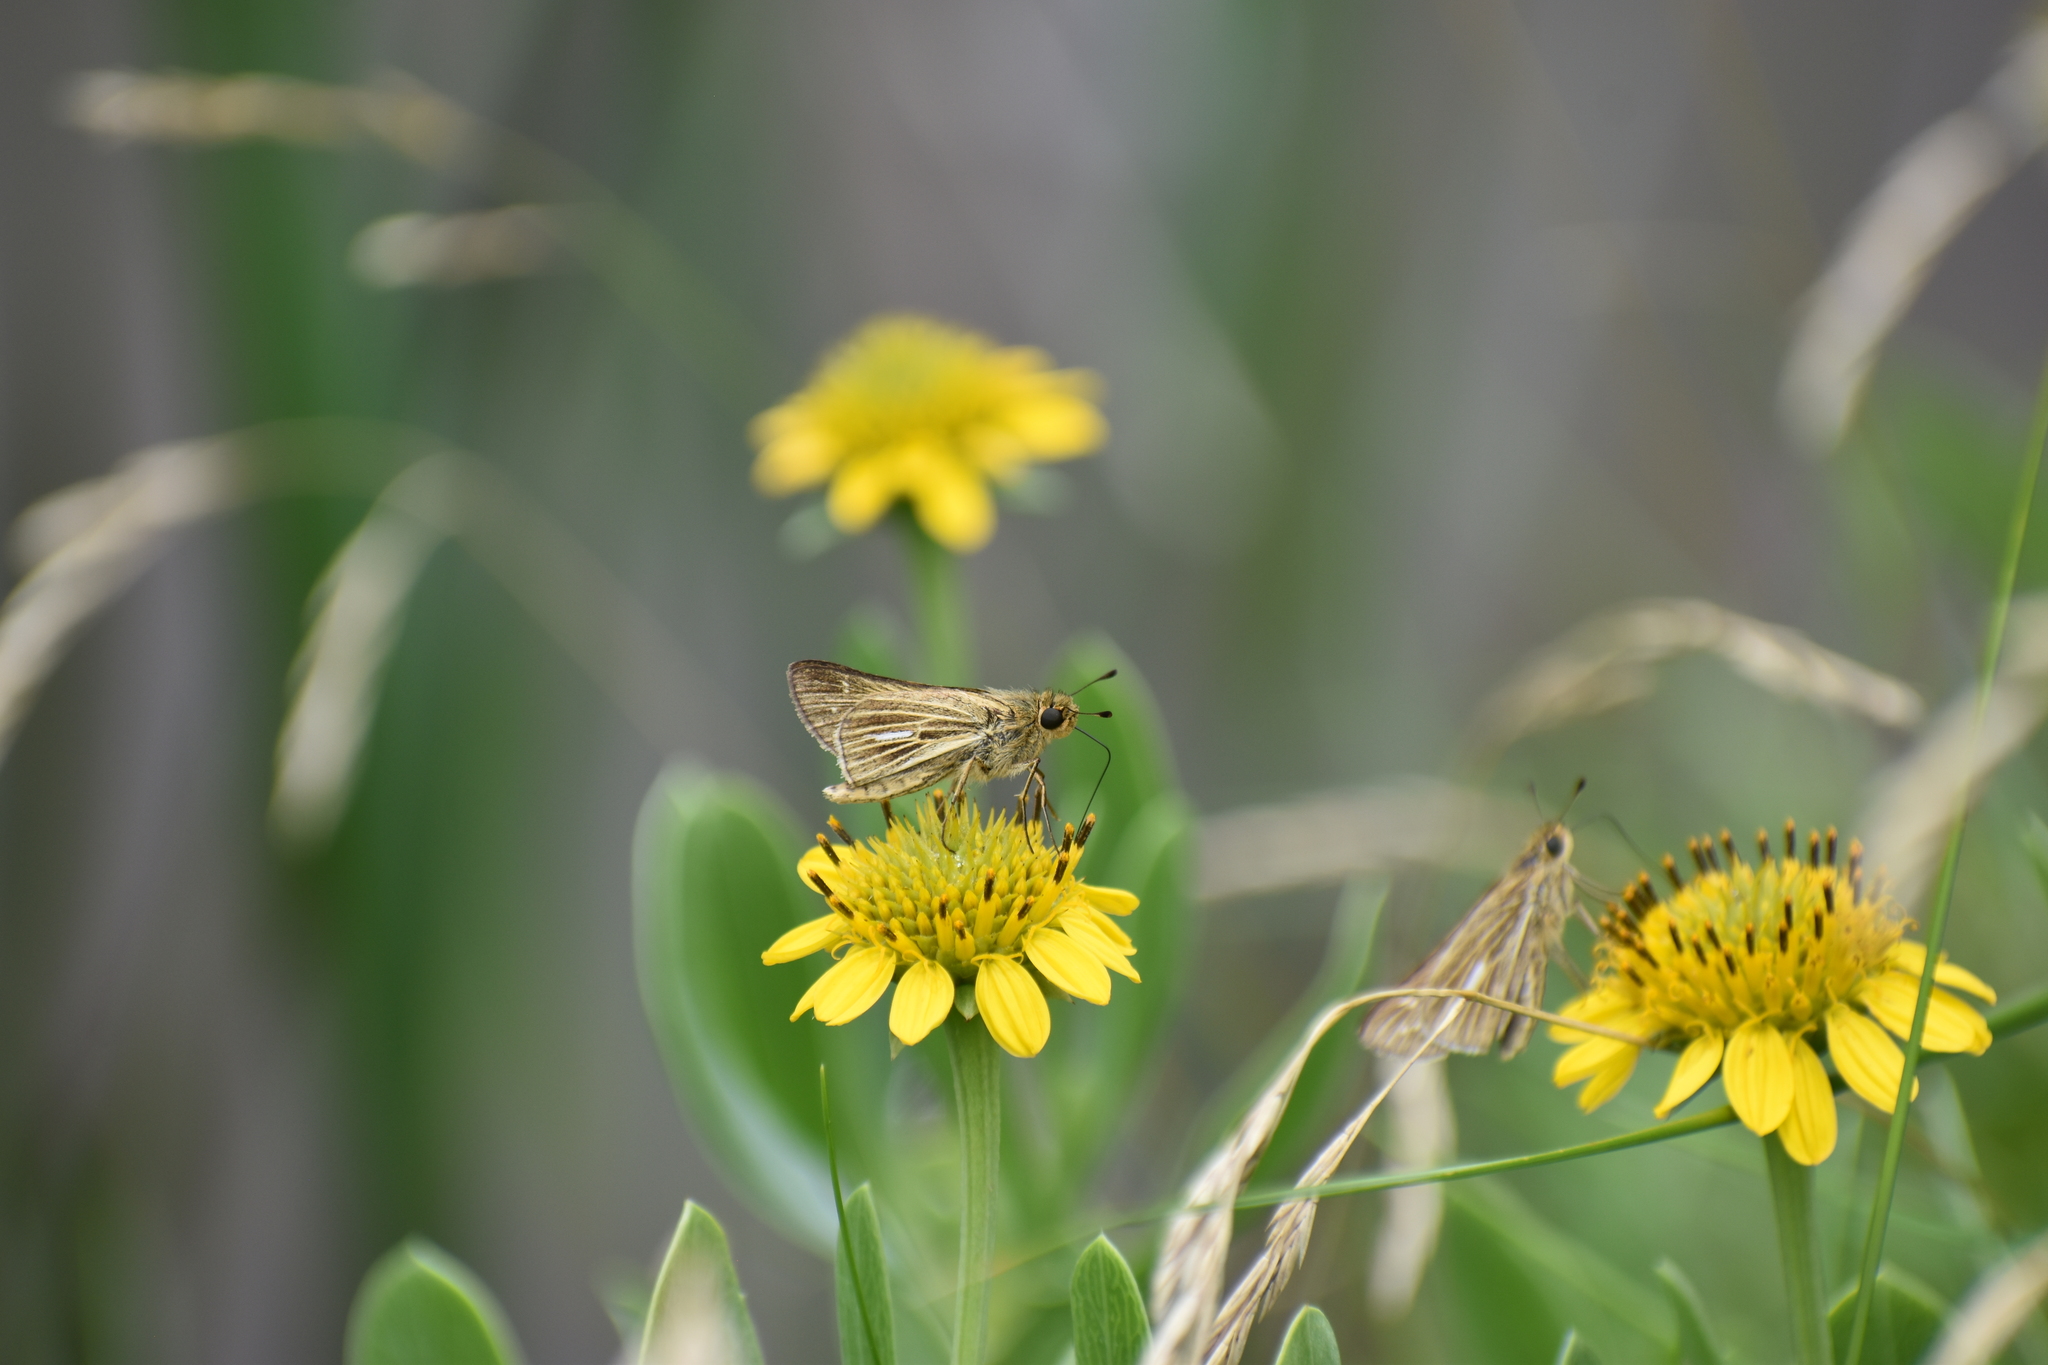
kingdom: Animalia
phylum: Arthropoda
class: Insecta
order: Lepidoptera
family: Hesperiidae
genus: Panoquina
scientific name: Panoquina panoquin
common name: Salt marsh skipper
